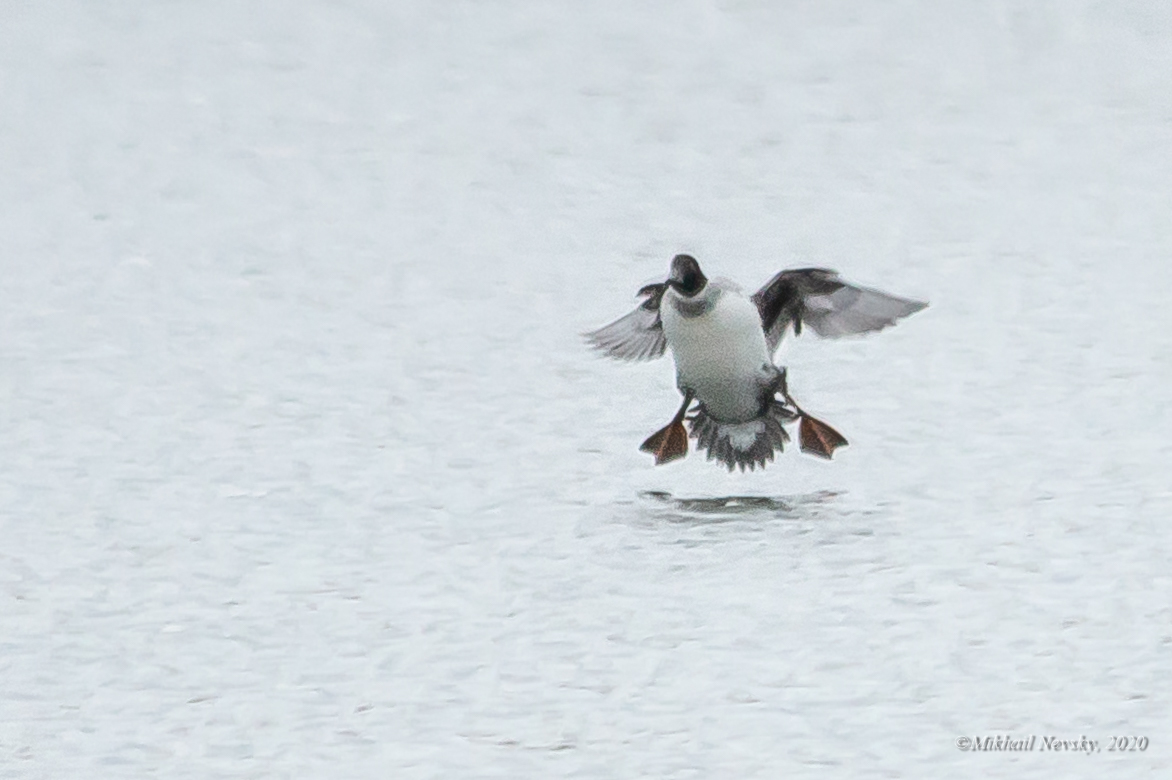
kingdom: Animalia
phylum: Chordata
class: Aves
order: Anseriformes
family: Anatidae
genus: Spatula
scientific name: Spatula clypeata
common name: Northern shoveler
